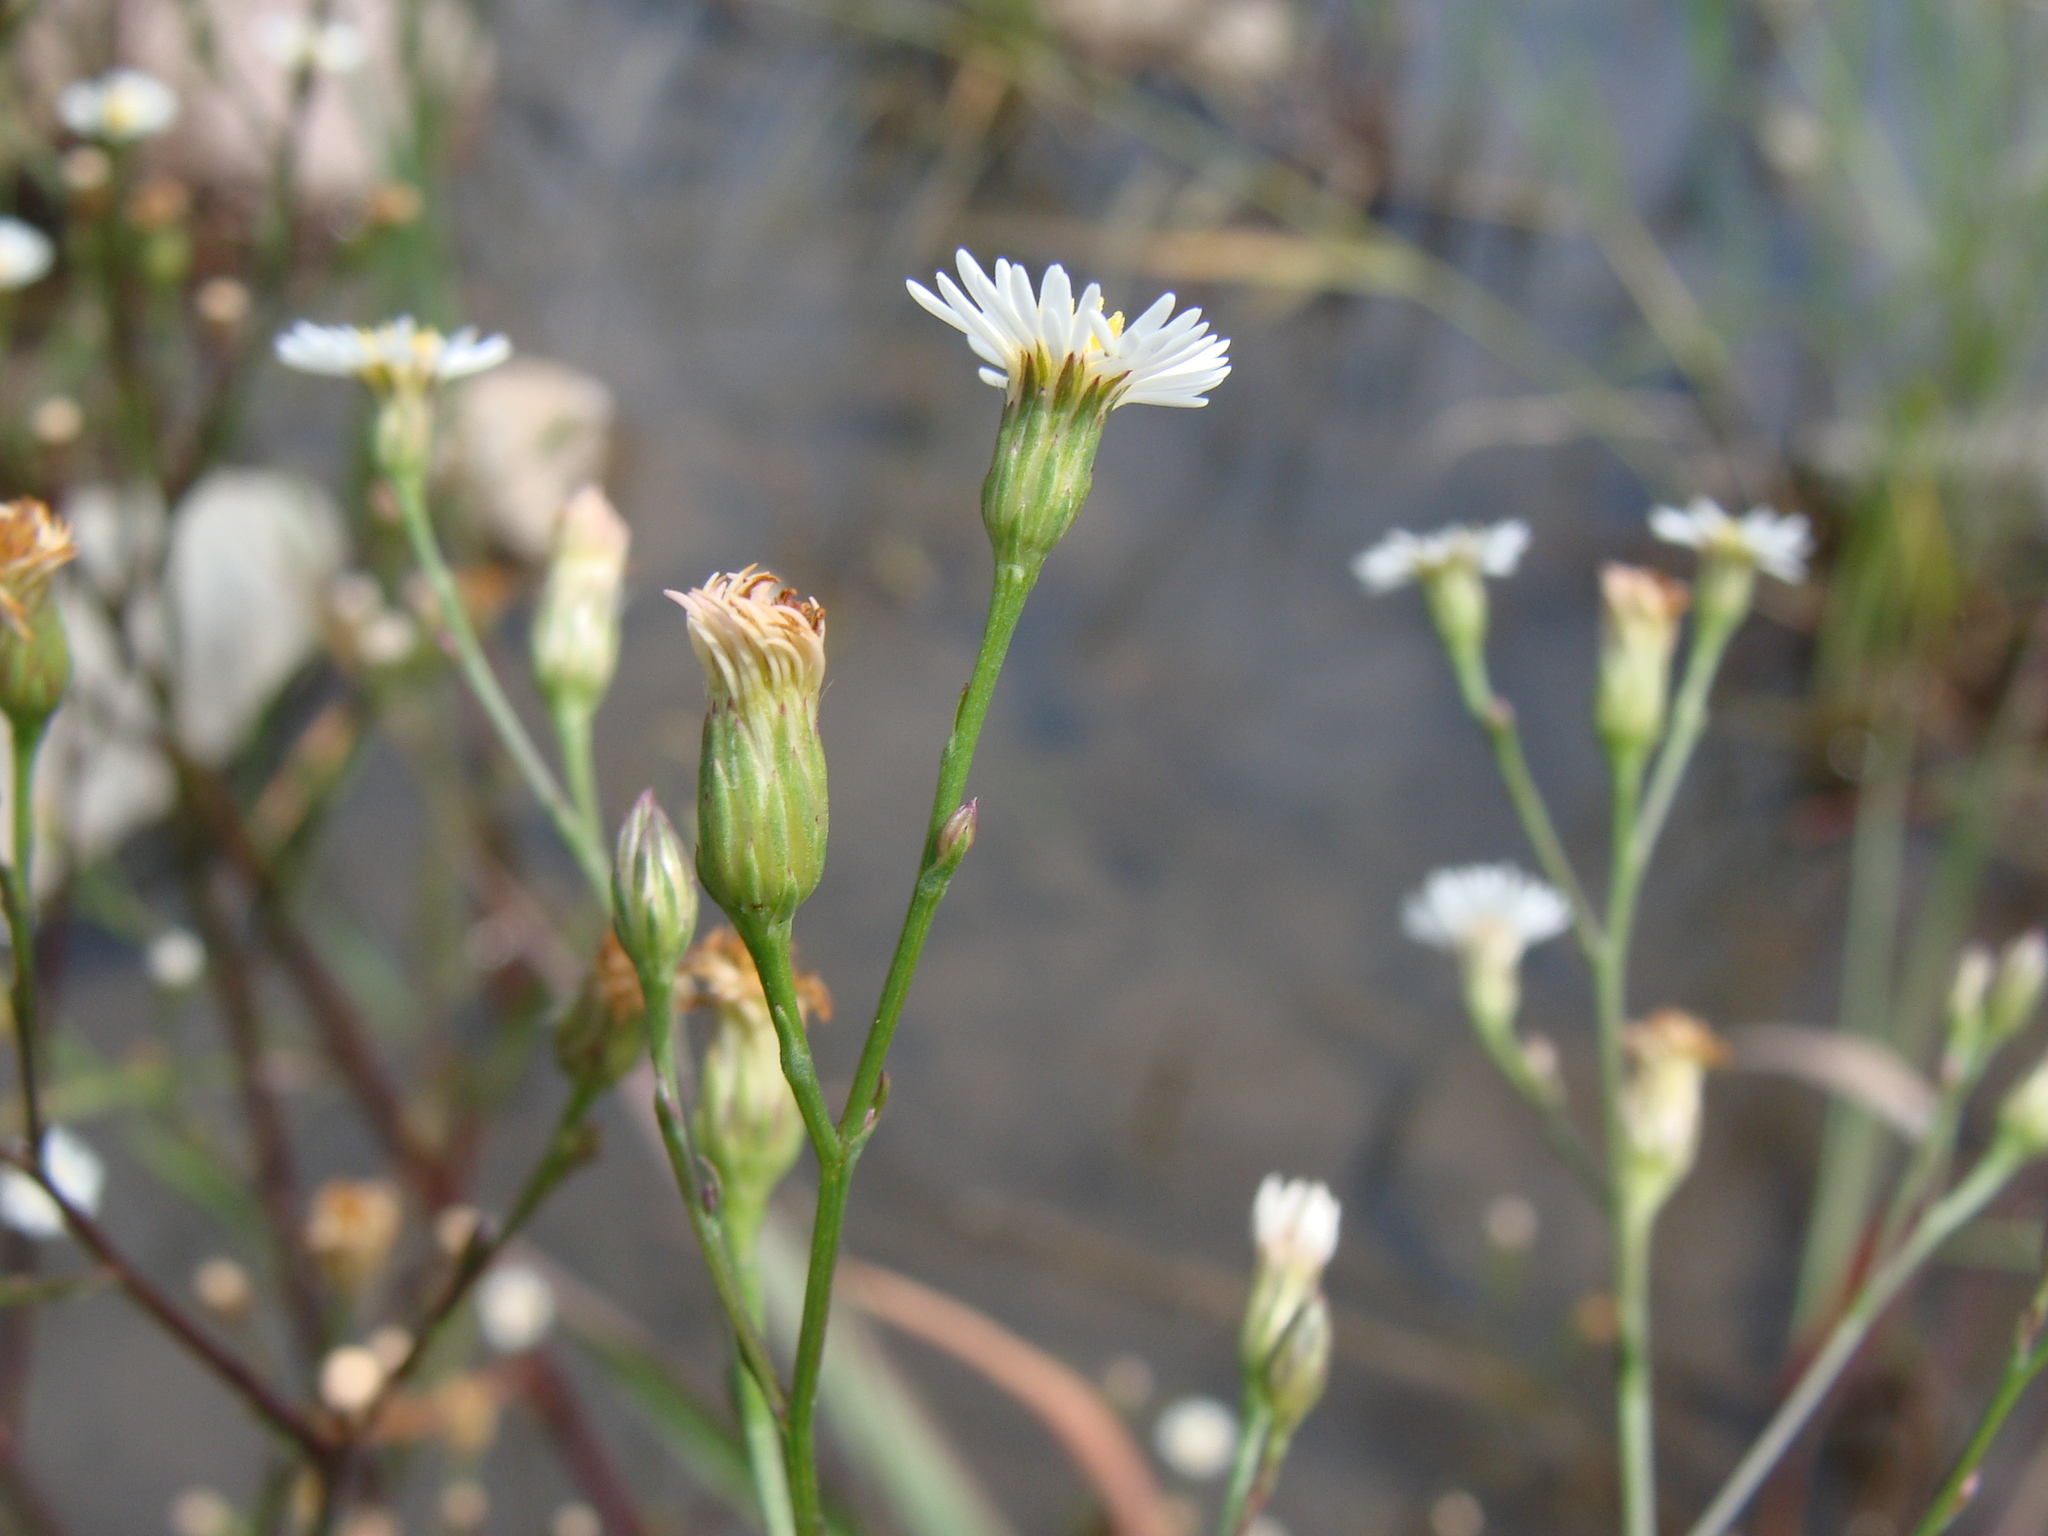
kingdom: Plantae
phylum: Tracheophyta
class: Magnoliopsida
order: Asterales
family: Asteraceae
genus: Symphyotrichum
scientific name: Symphyotrichum expansum
